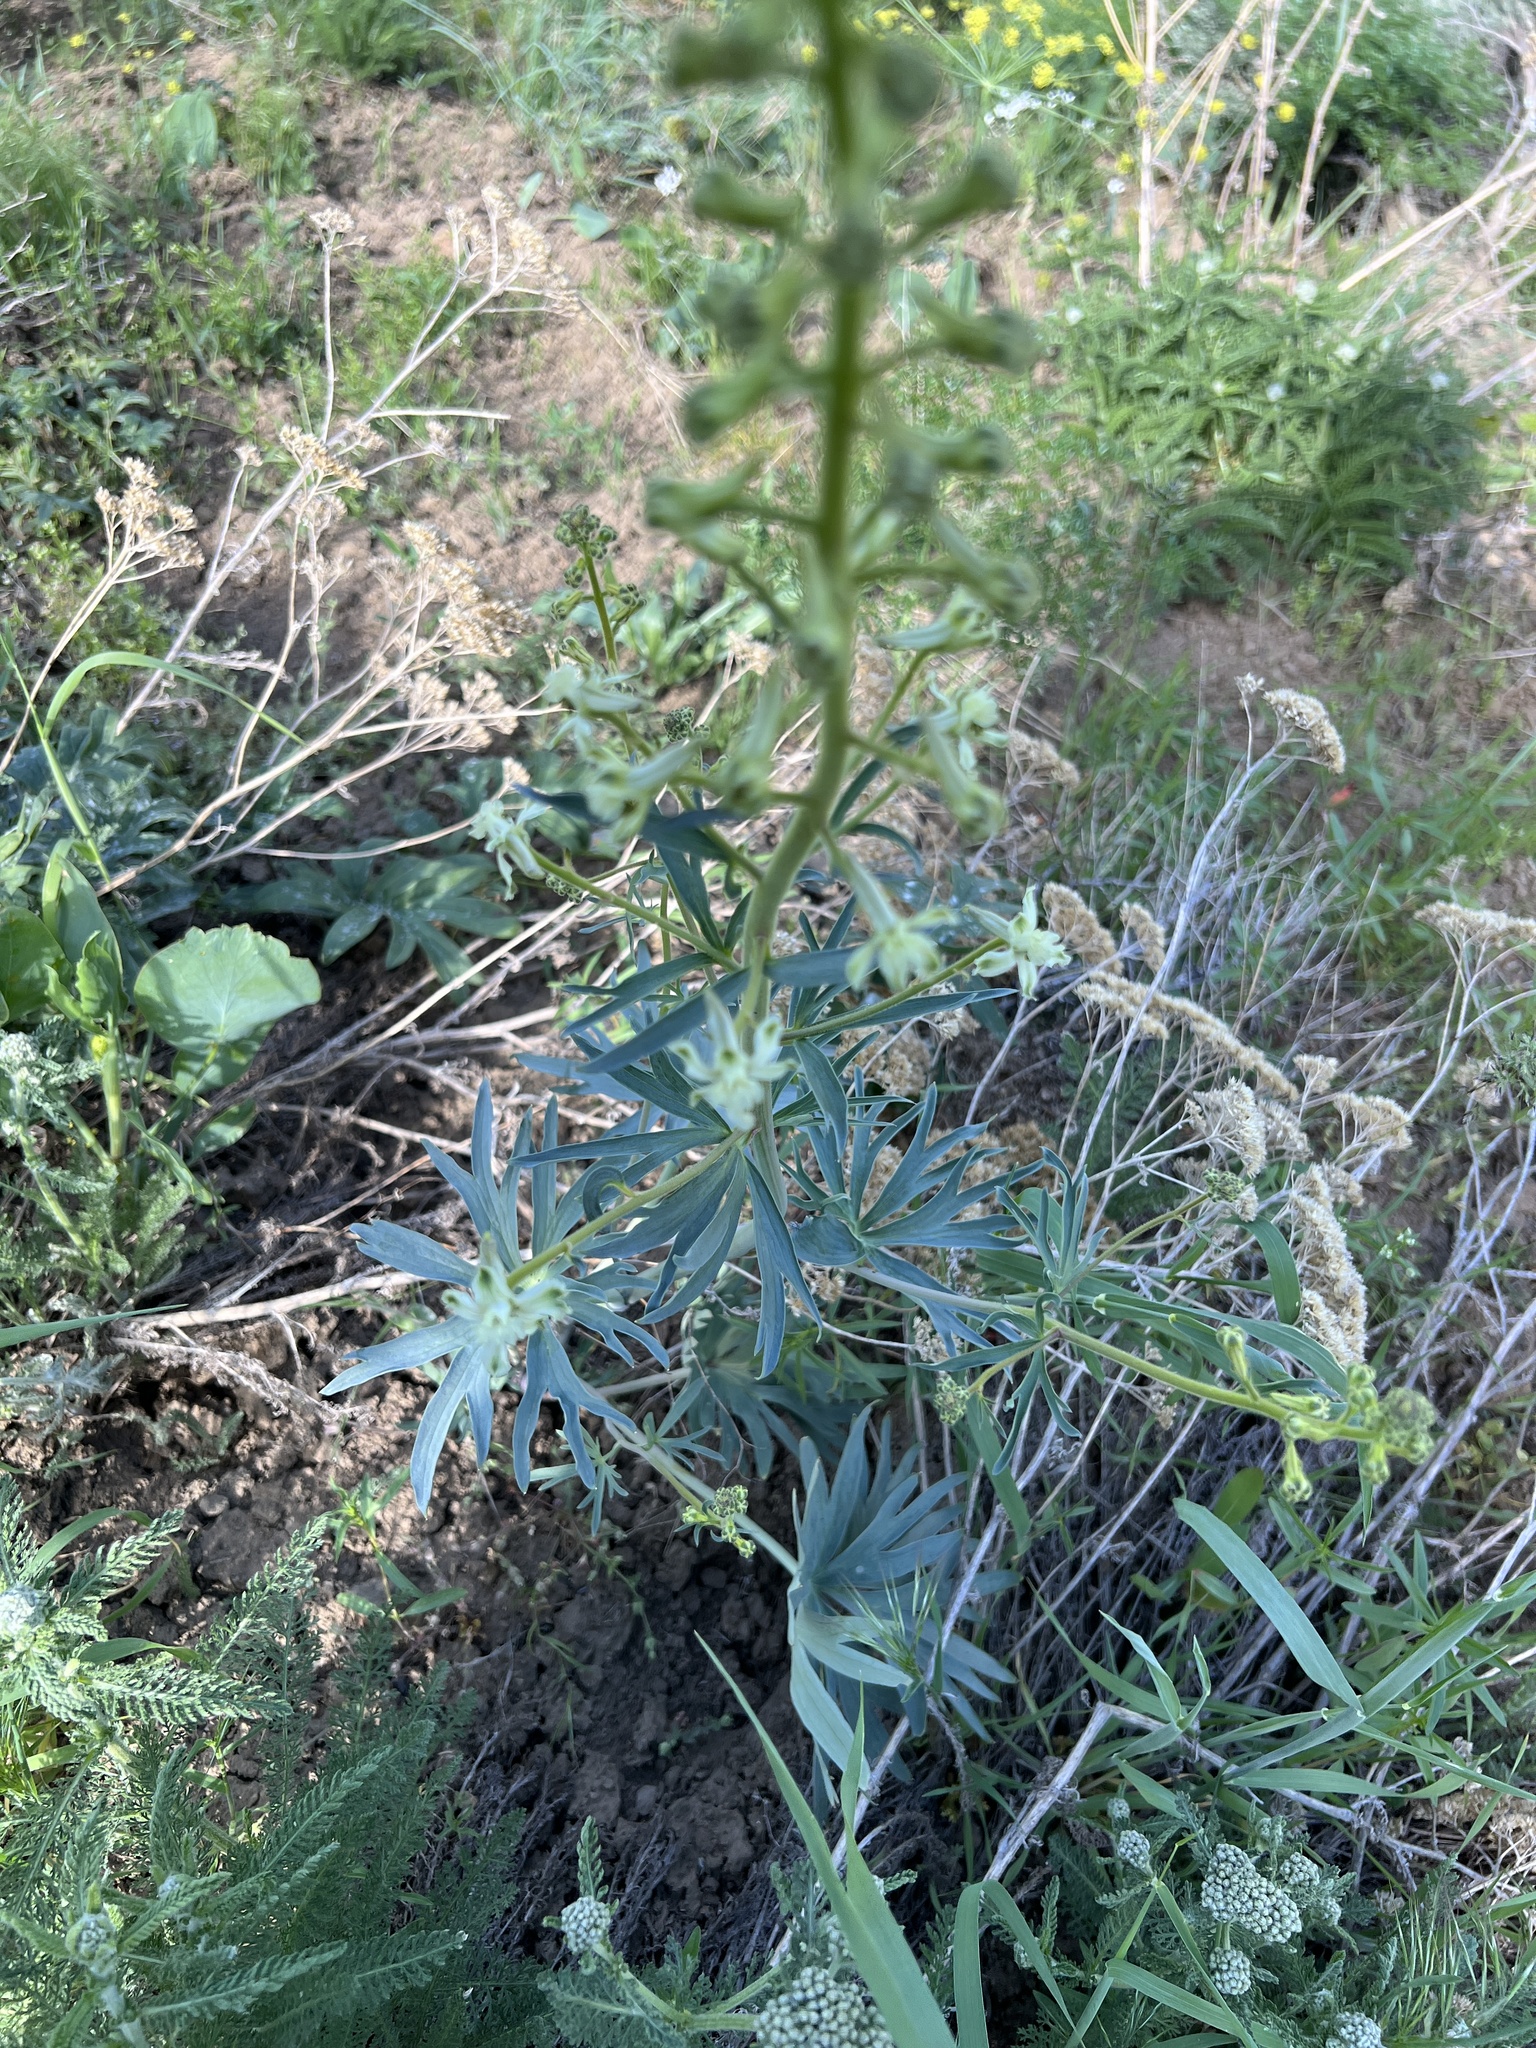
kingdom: Plantae
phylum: Tracheophyta
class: Magnoliopsida
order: Ranunculales
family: Ranunculaceae
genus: Delphinium
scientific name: Delphinium xantholeucum
